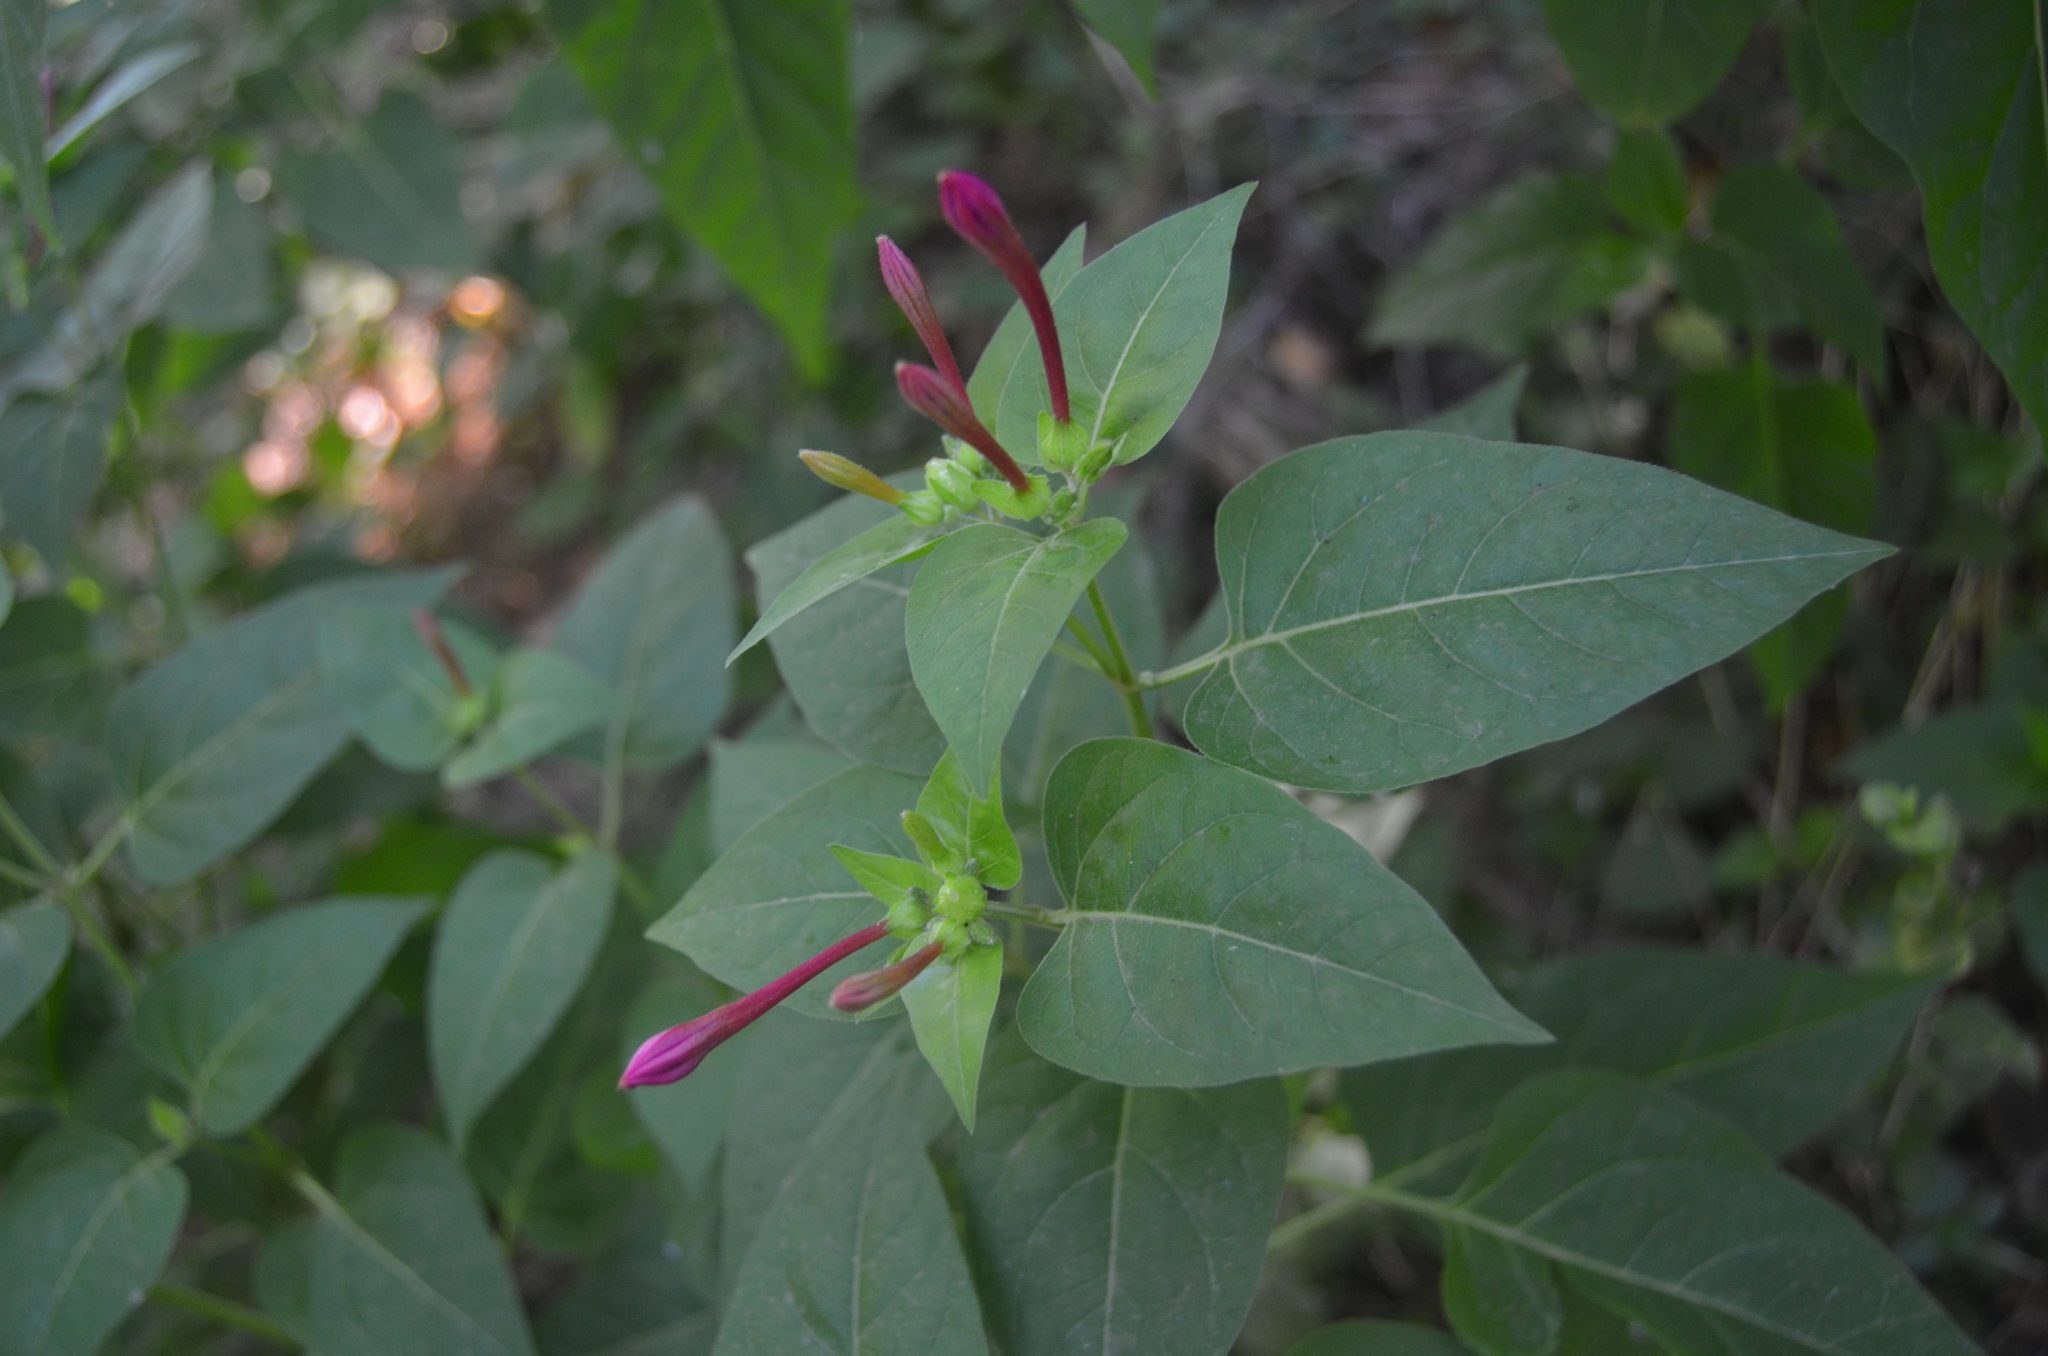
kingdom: Plantae
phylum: Tracheophyta
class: Magnoliopsida
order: Caryophyllales
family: Nyctaginaceae
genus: Mirabilis
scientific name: Mirabilis jalapa
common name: Marvel-of-peru
